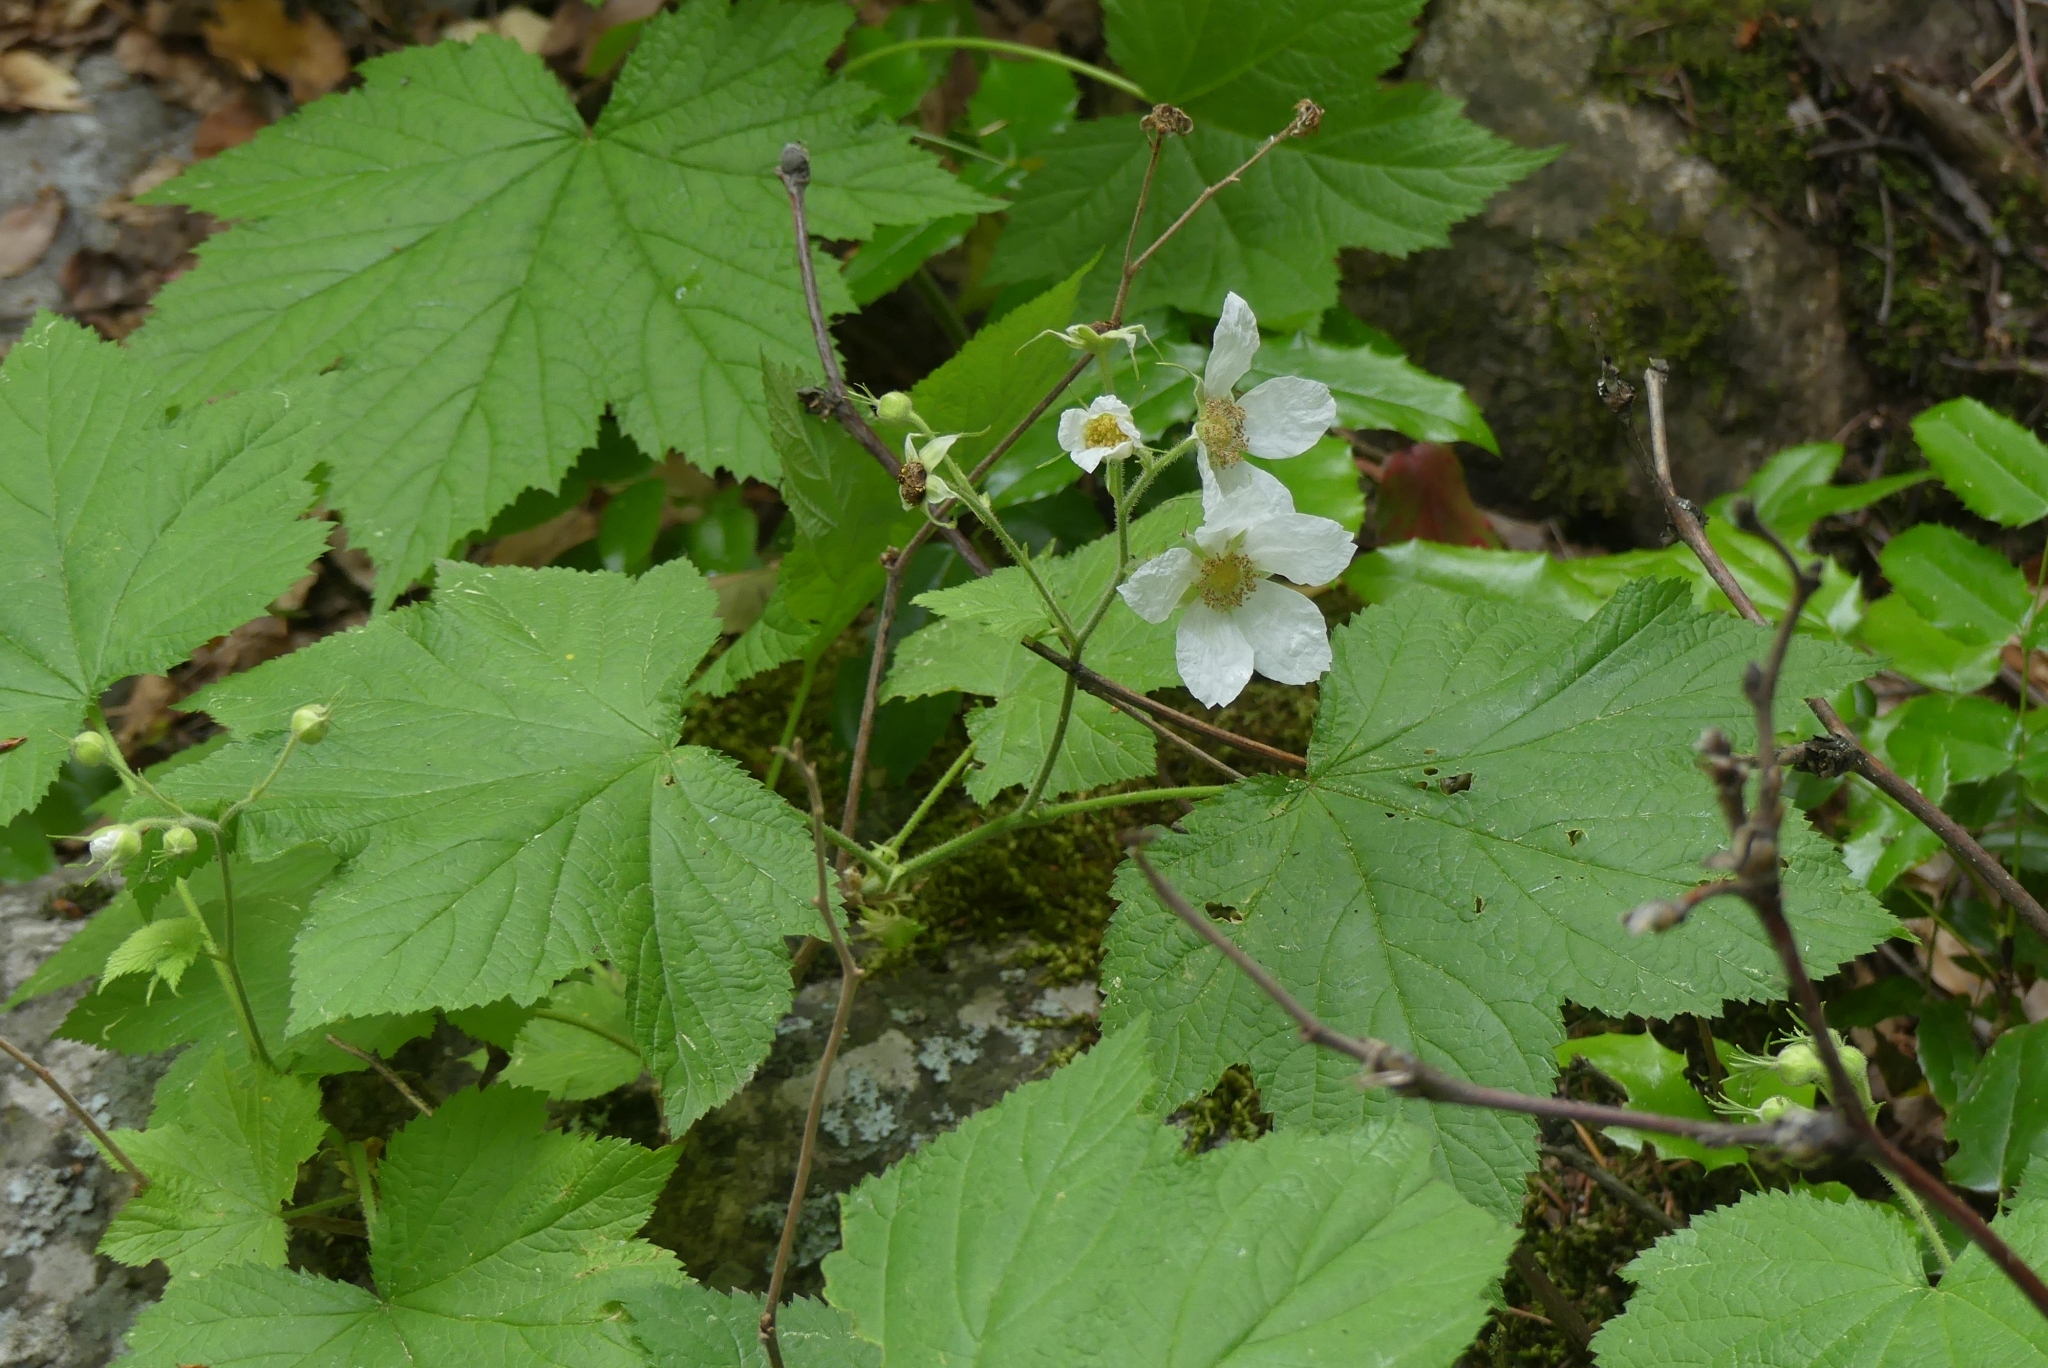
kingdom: Plantae
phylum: Tracheophyta
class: Magnoliopsida
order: Rosales
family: Rosaceae
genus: Rubus
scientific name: Rubus parviflorus
